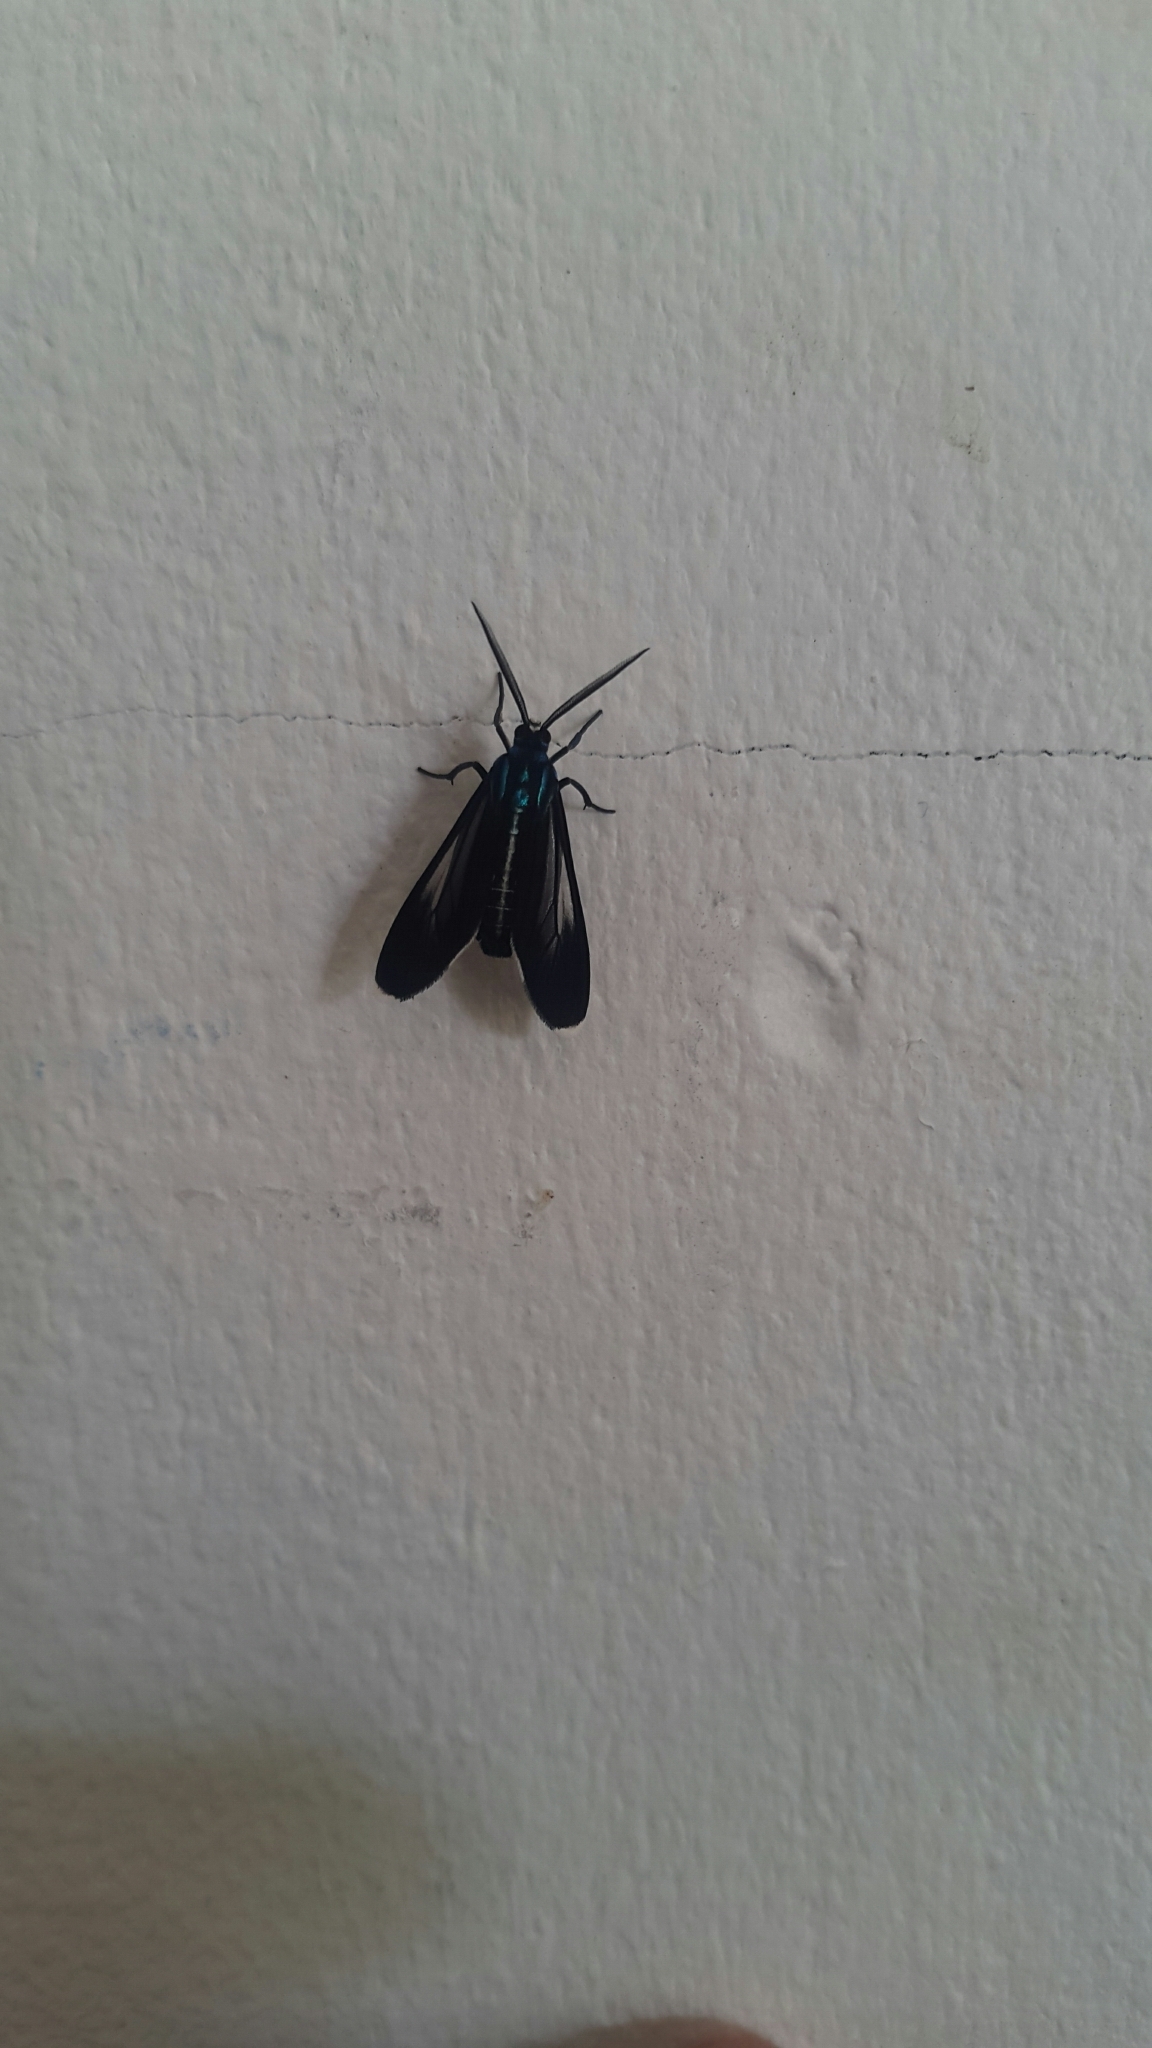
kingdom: Animalia
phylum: Arthropoda
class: Insecta
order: Lepidoptera
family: Erebidae
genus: Uranophora
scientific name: Uranophora leucotela
